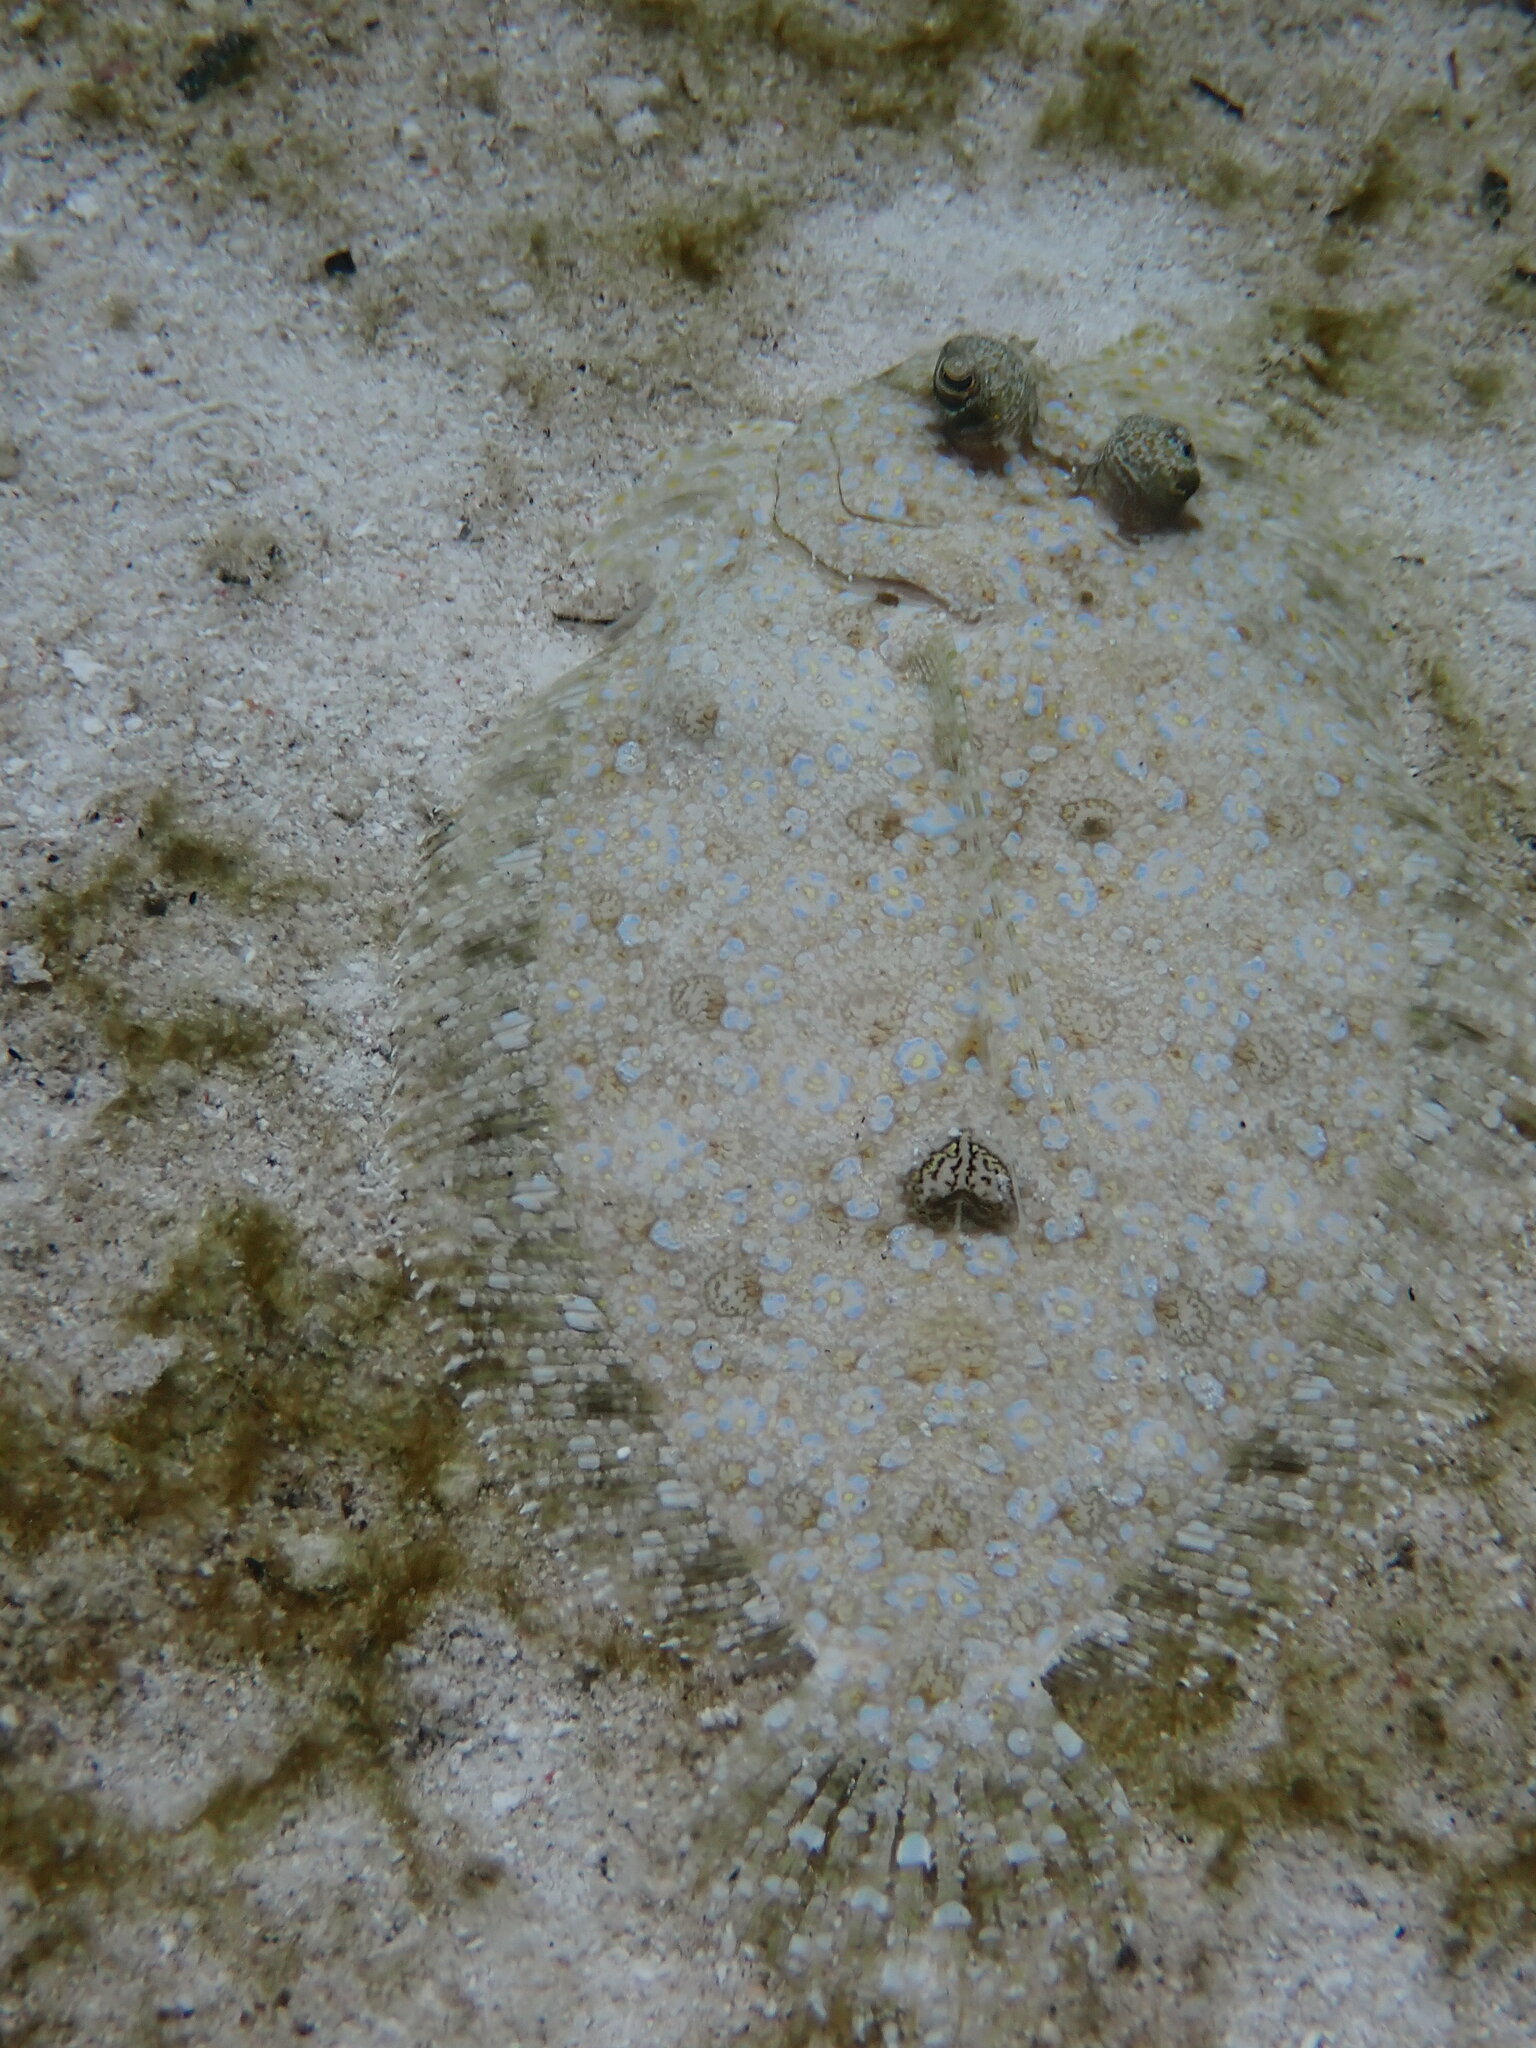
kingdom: Animalia
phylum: Chordata
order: Pleuronectiformes
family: Bothidae
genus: Bothus
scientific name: Bothus pantherinus
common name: Leopard flounder
